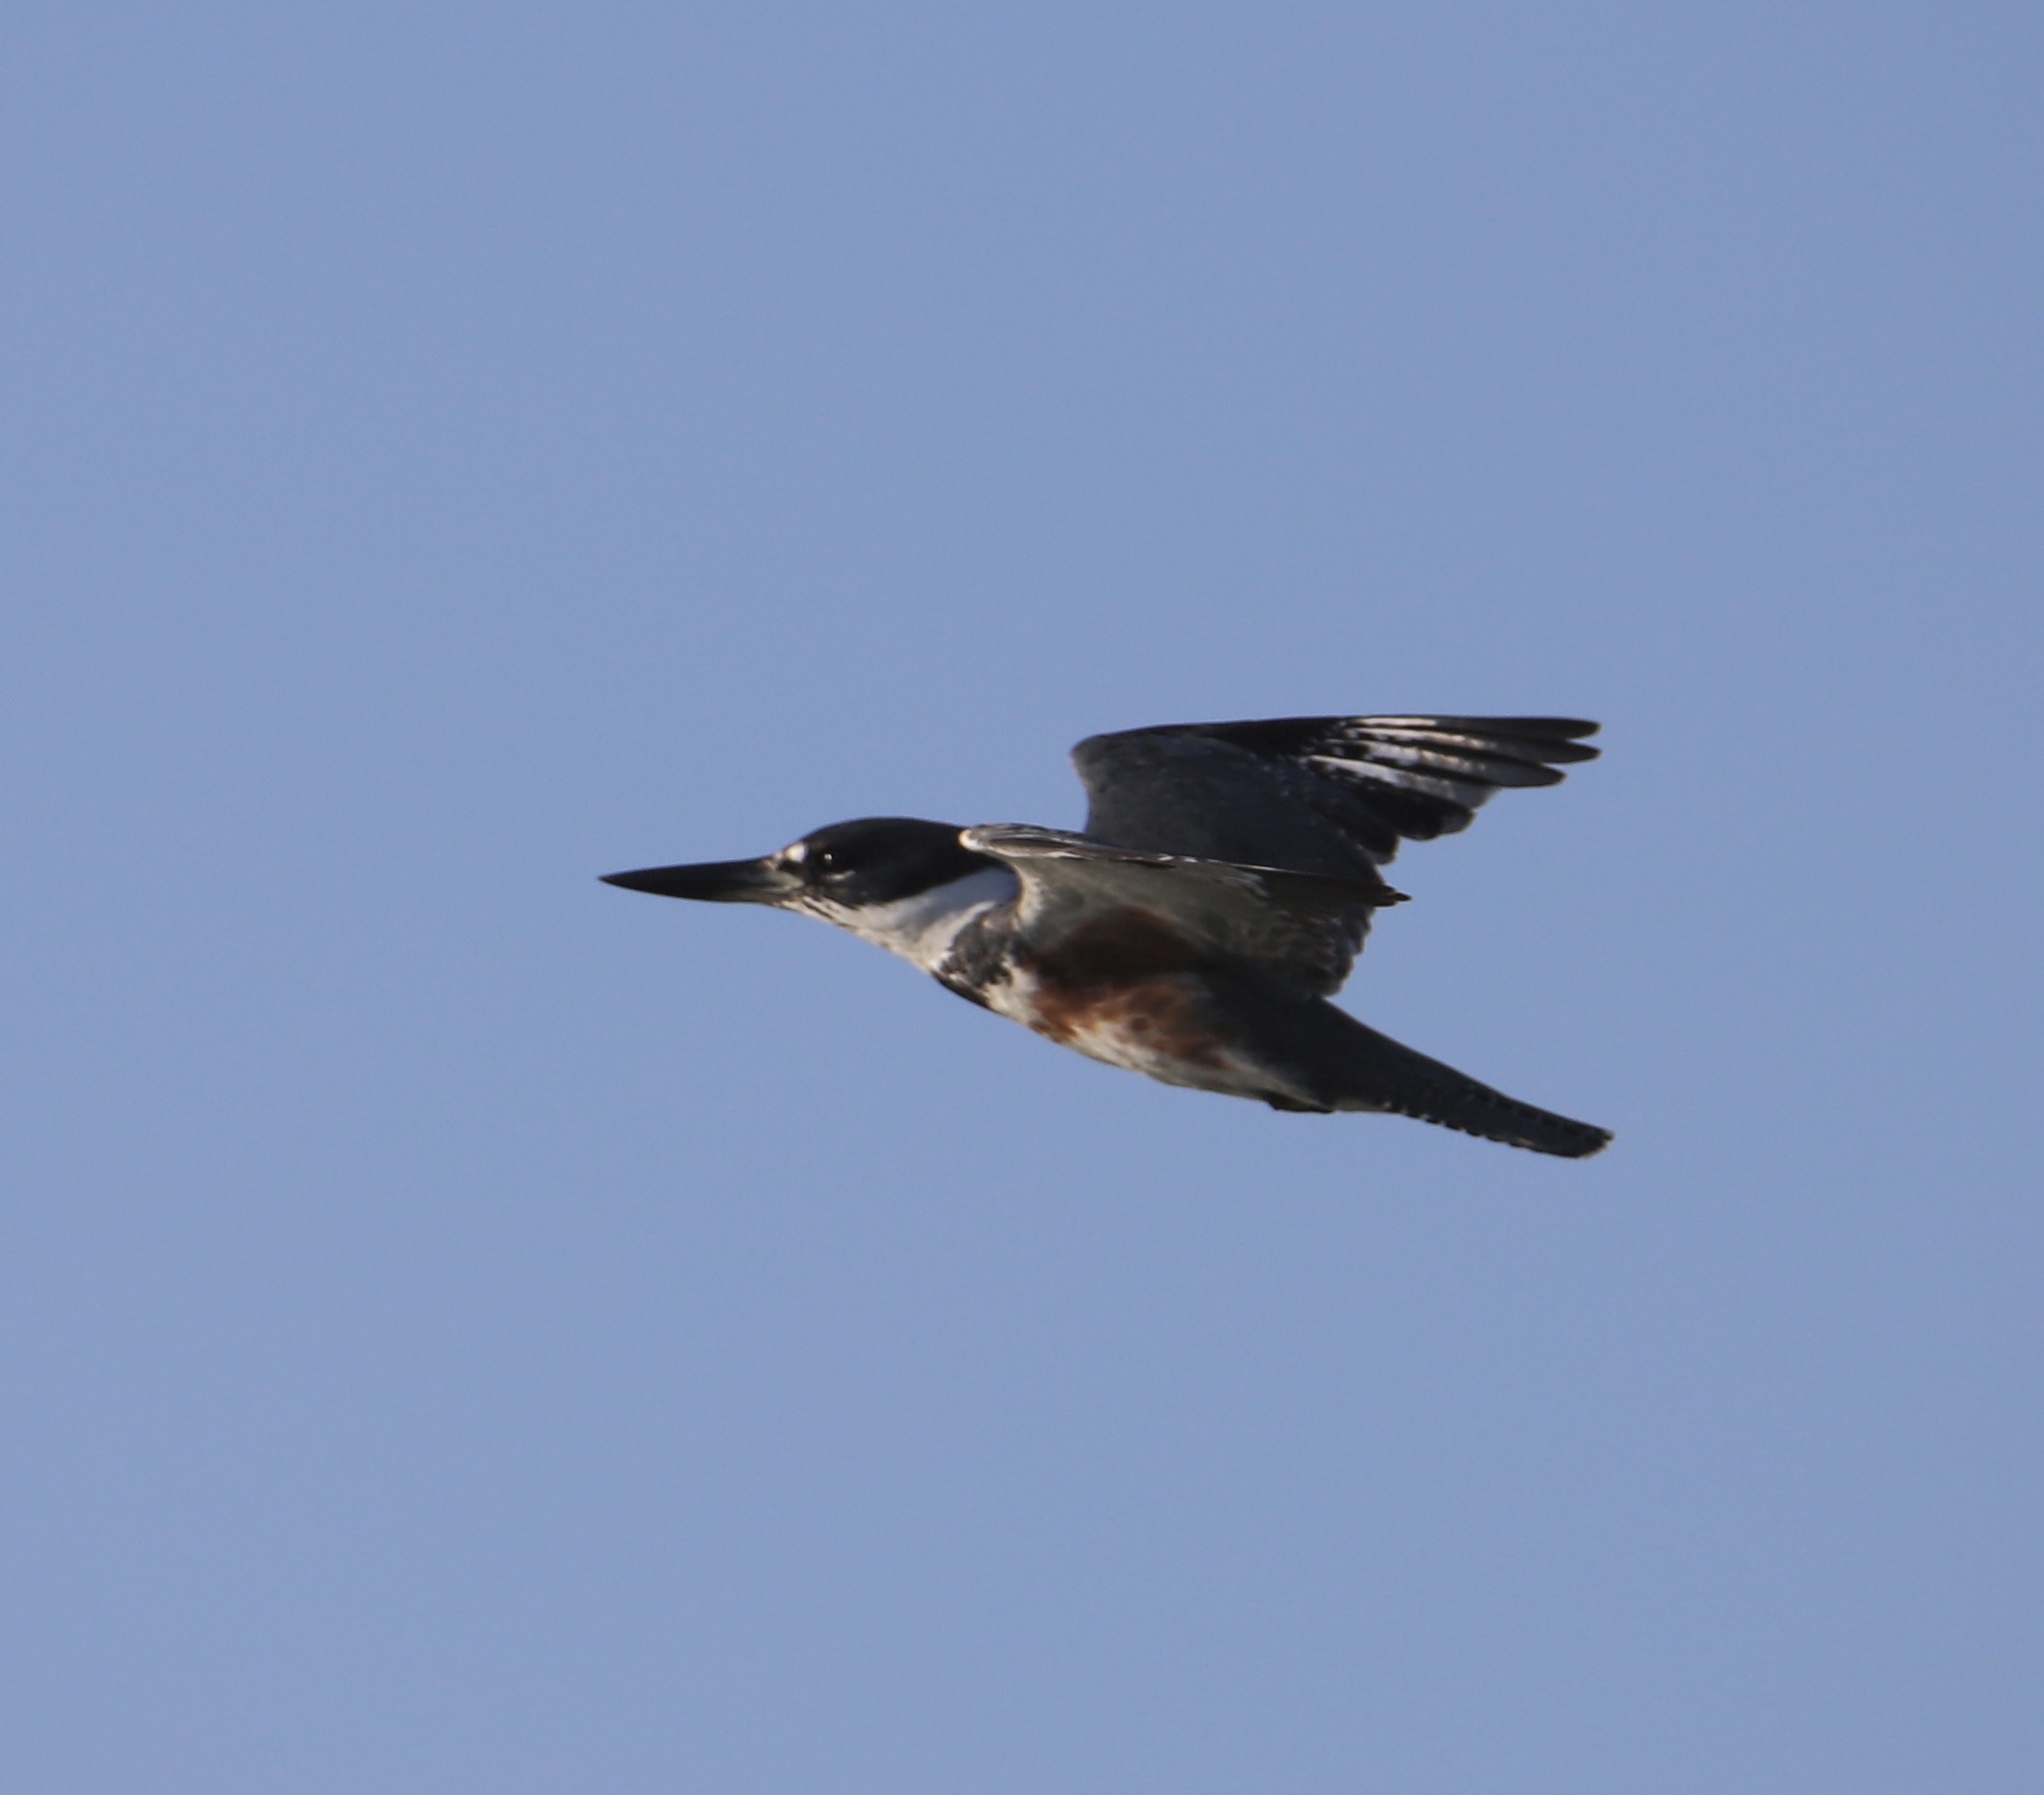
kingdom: Animalia
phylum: Chordata
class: Aves
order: Coraciiformes
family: Alcedinidae
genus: Megaceryle
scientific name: Megaceryle alcyon
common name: Belted kingfisher
